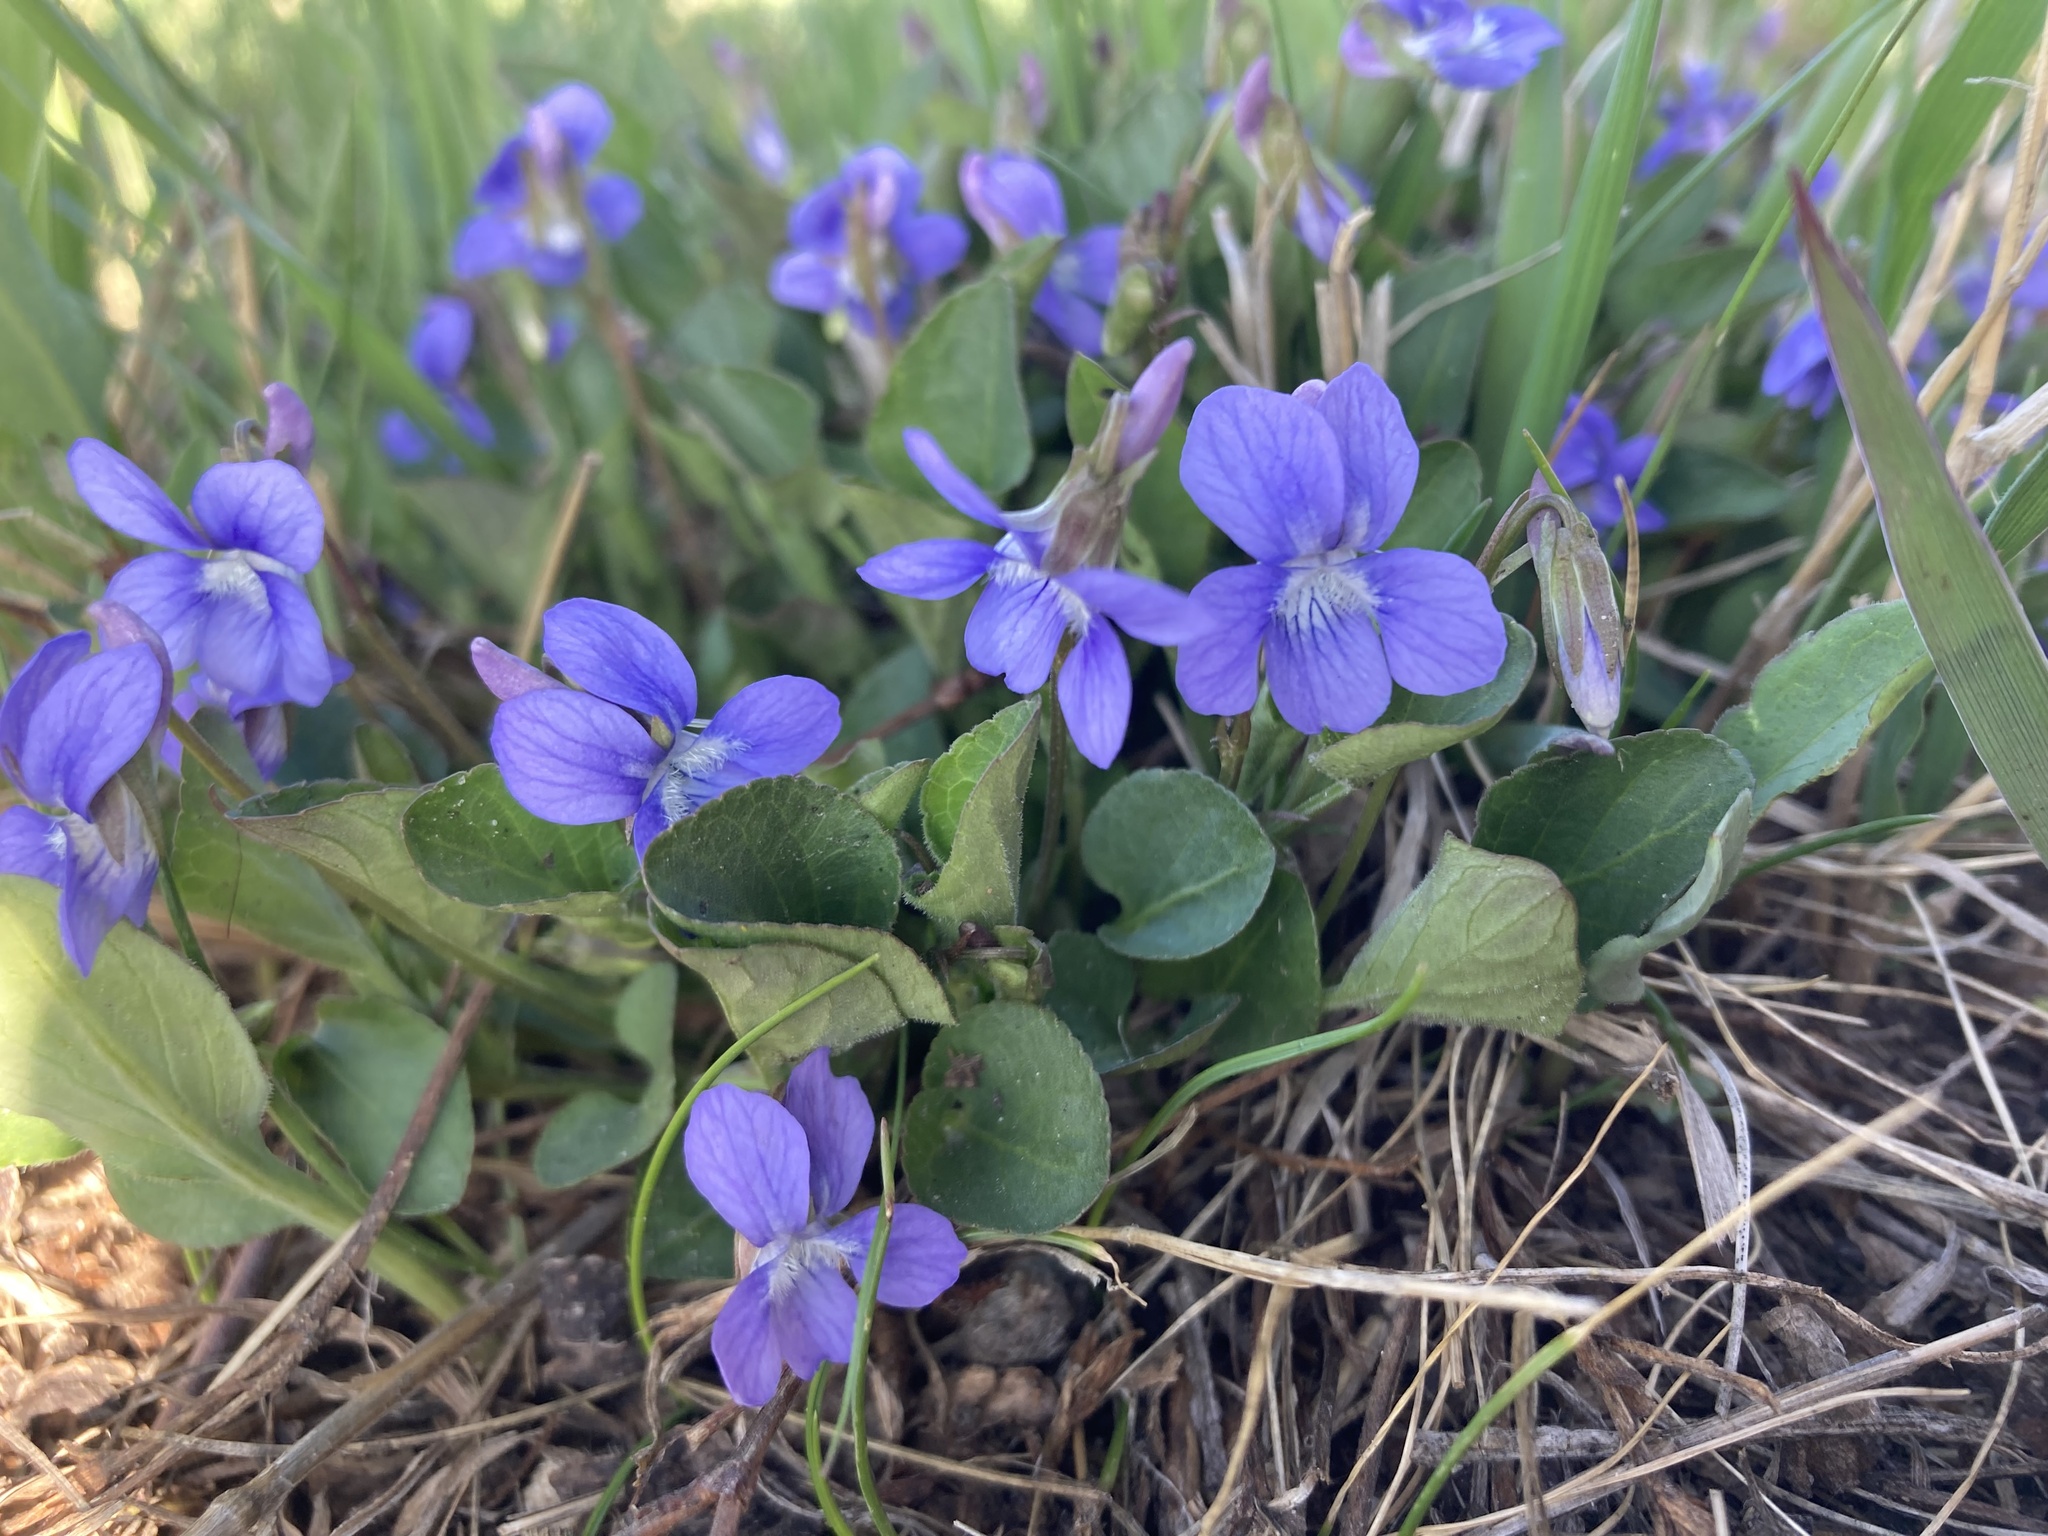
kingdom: Plantae
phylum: Tracheophyta
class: Magnoliopsida
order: Malpighiales
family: Violaceae
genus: Viola
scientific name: Viola adunca
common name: Sand violet
